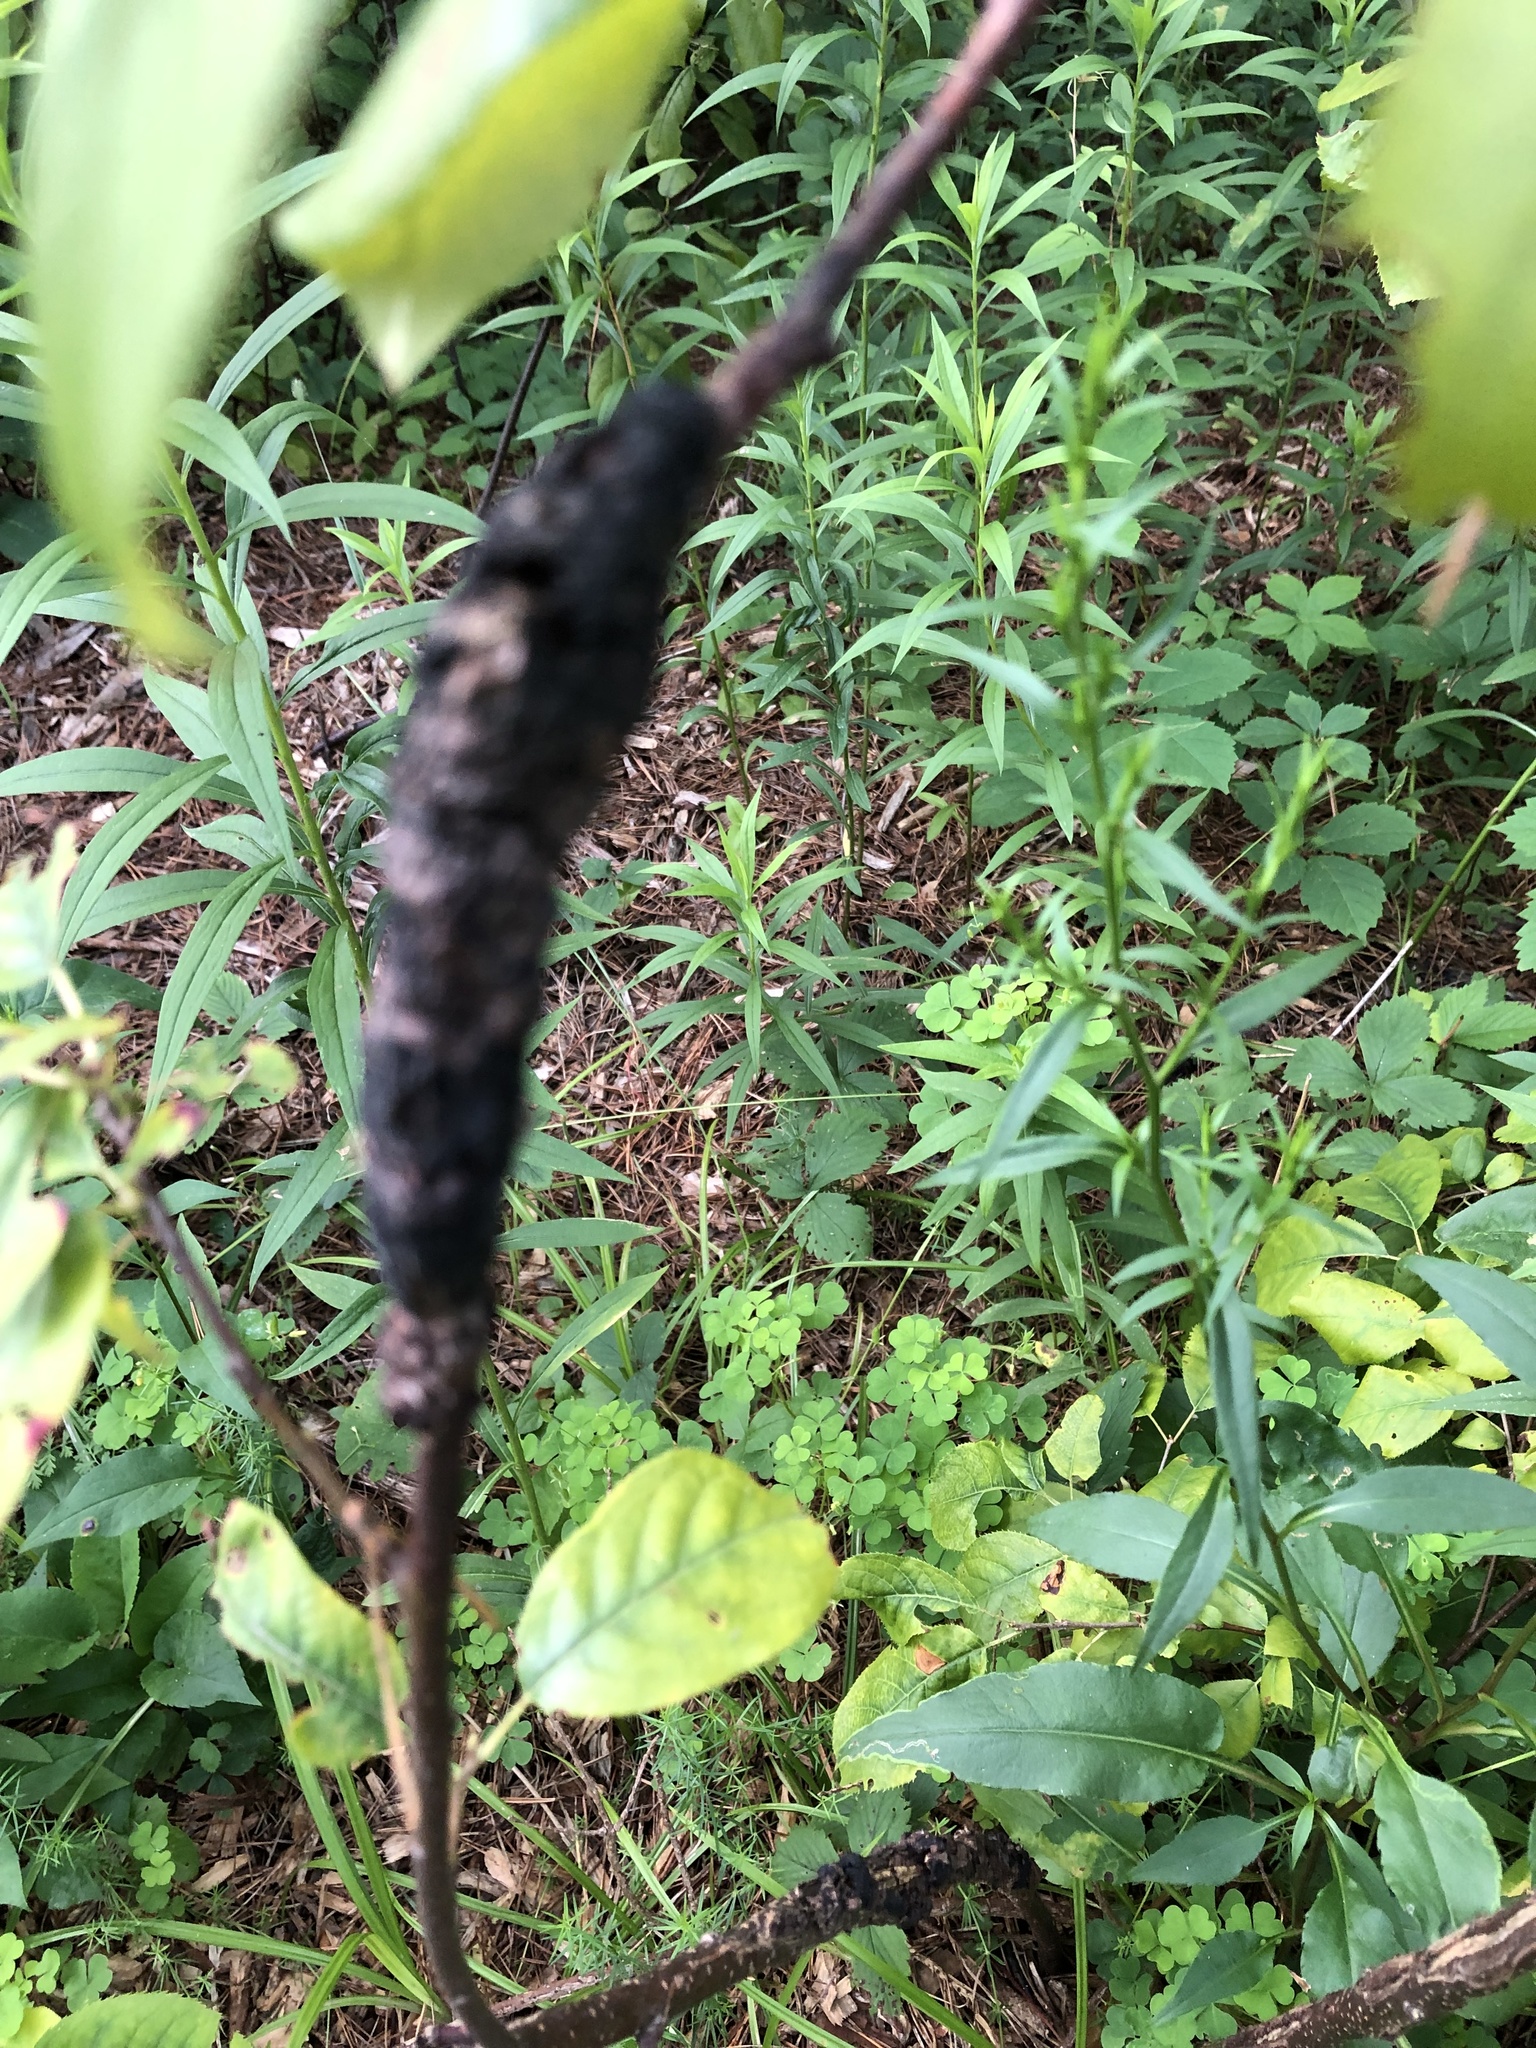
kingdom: Fungi
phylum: Ascomycota
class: Dothideomycetes
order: Venturiales
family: Venturiaceae
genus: Apiosporina
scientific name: Apiosporina morbosa
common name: Black knot
